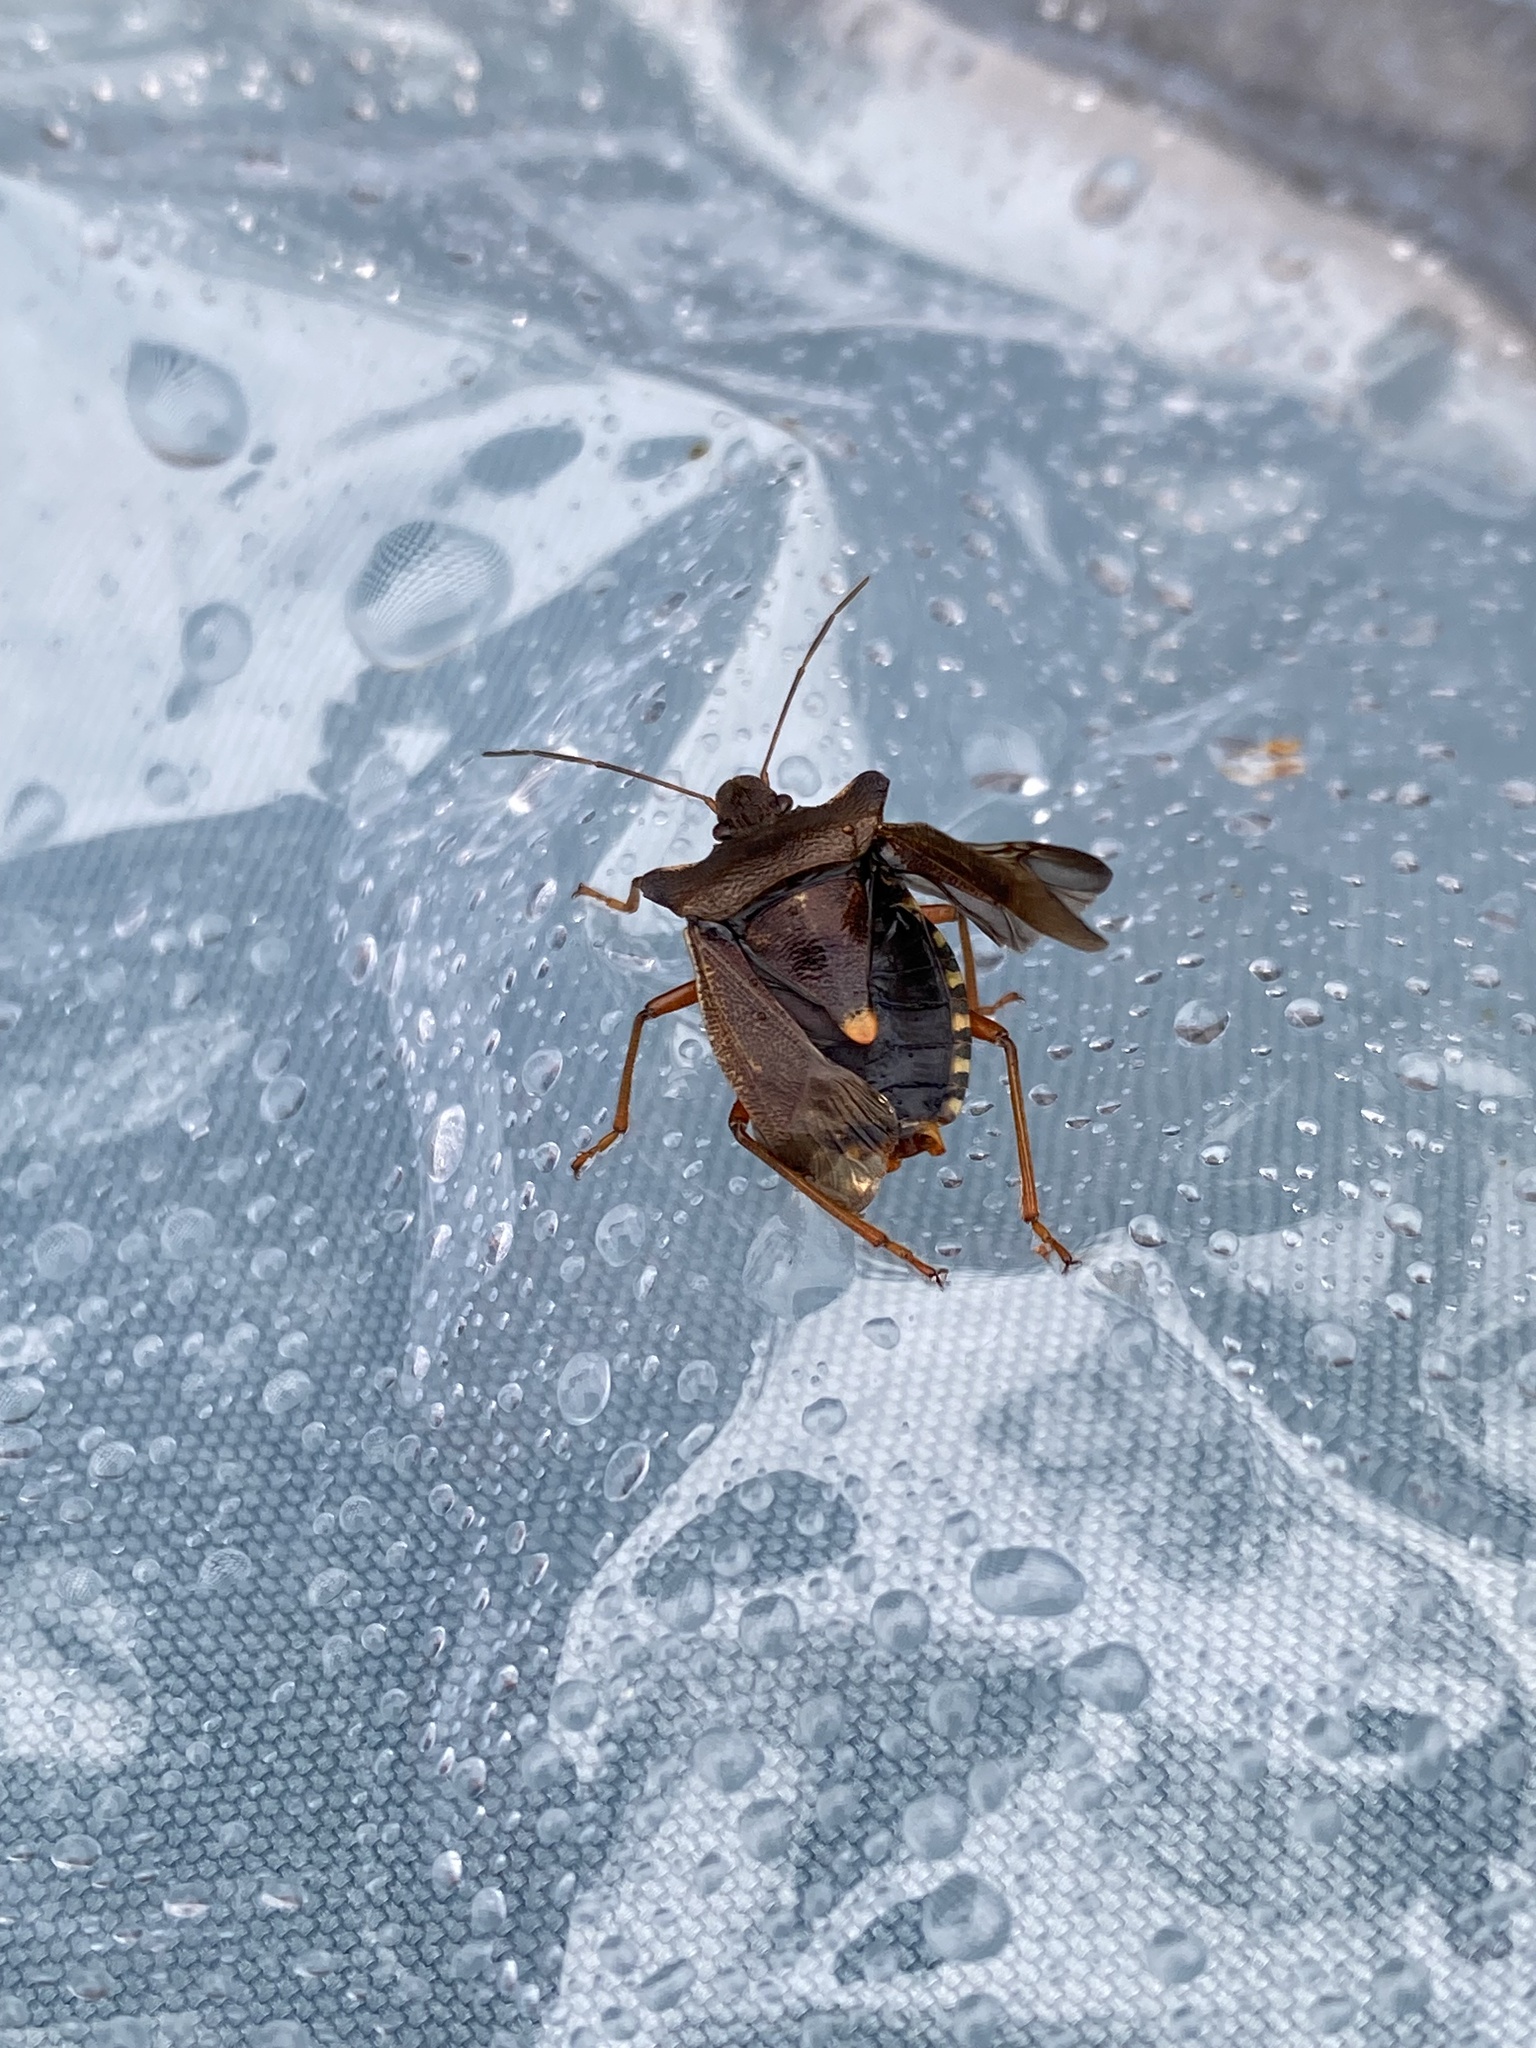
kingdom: Animalia
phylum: Arthropoda
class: Insecta
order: Hemiptera
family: Pentatomidae
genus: Pentatoma
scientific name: Pentatoma rufipes
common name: Forest bug
